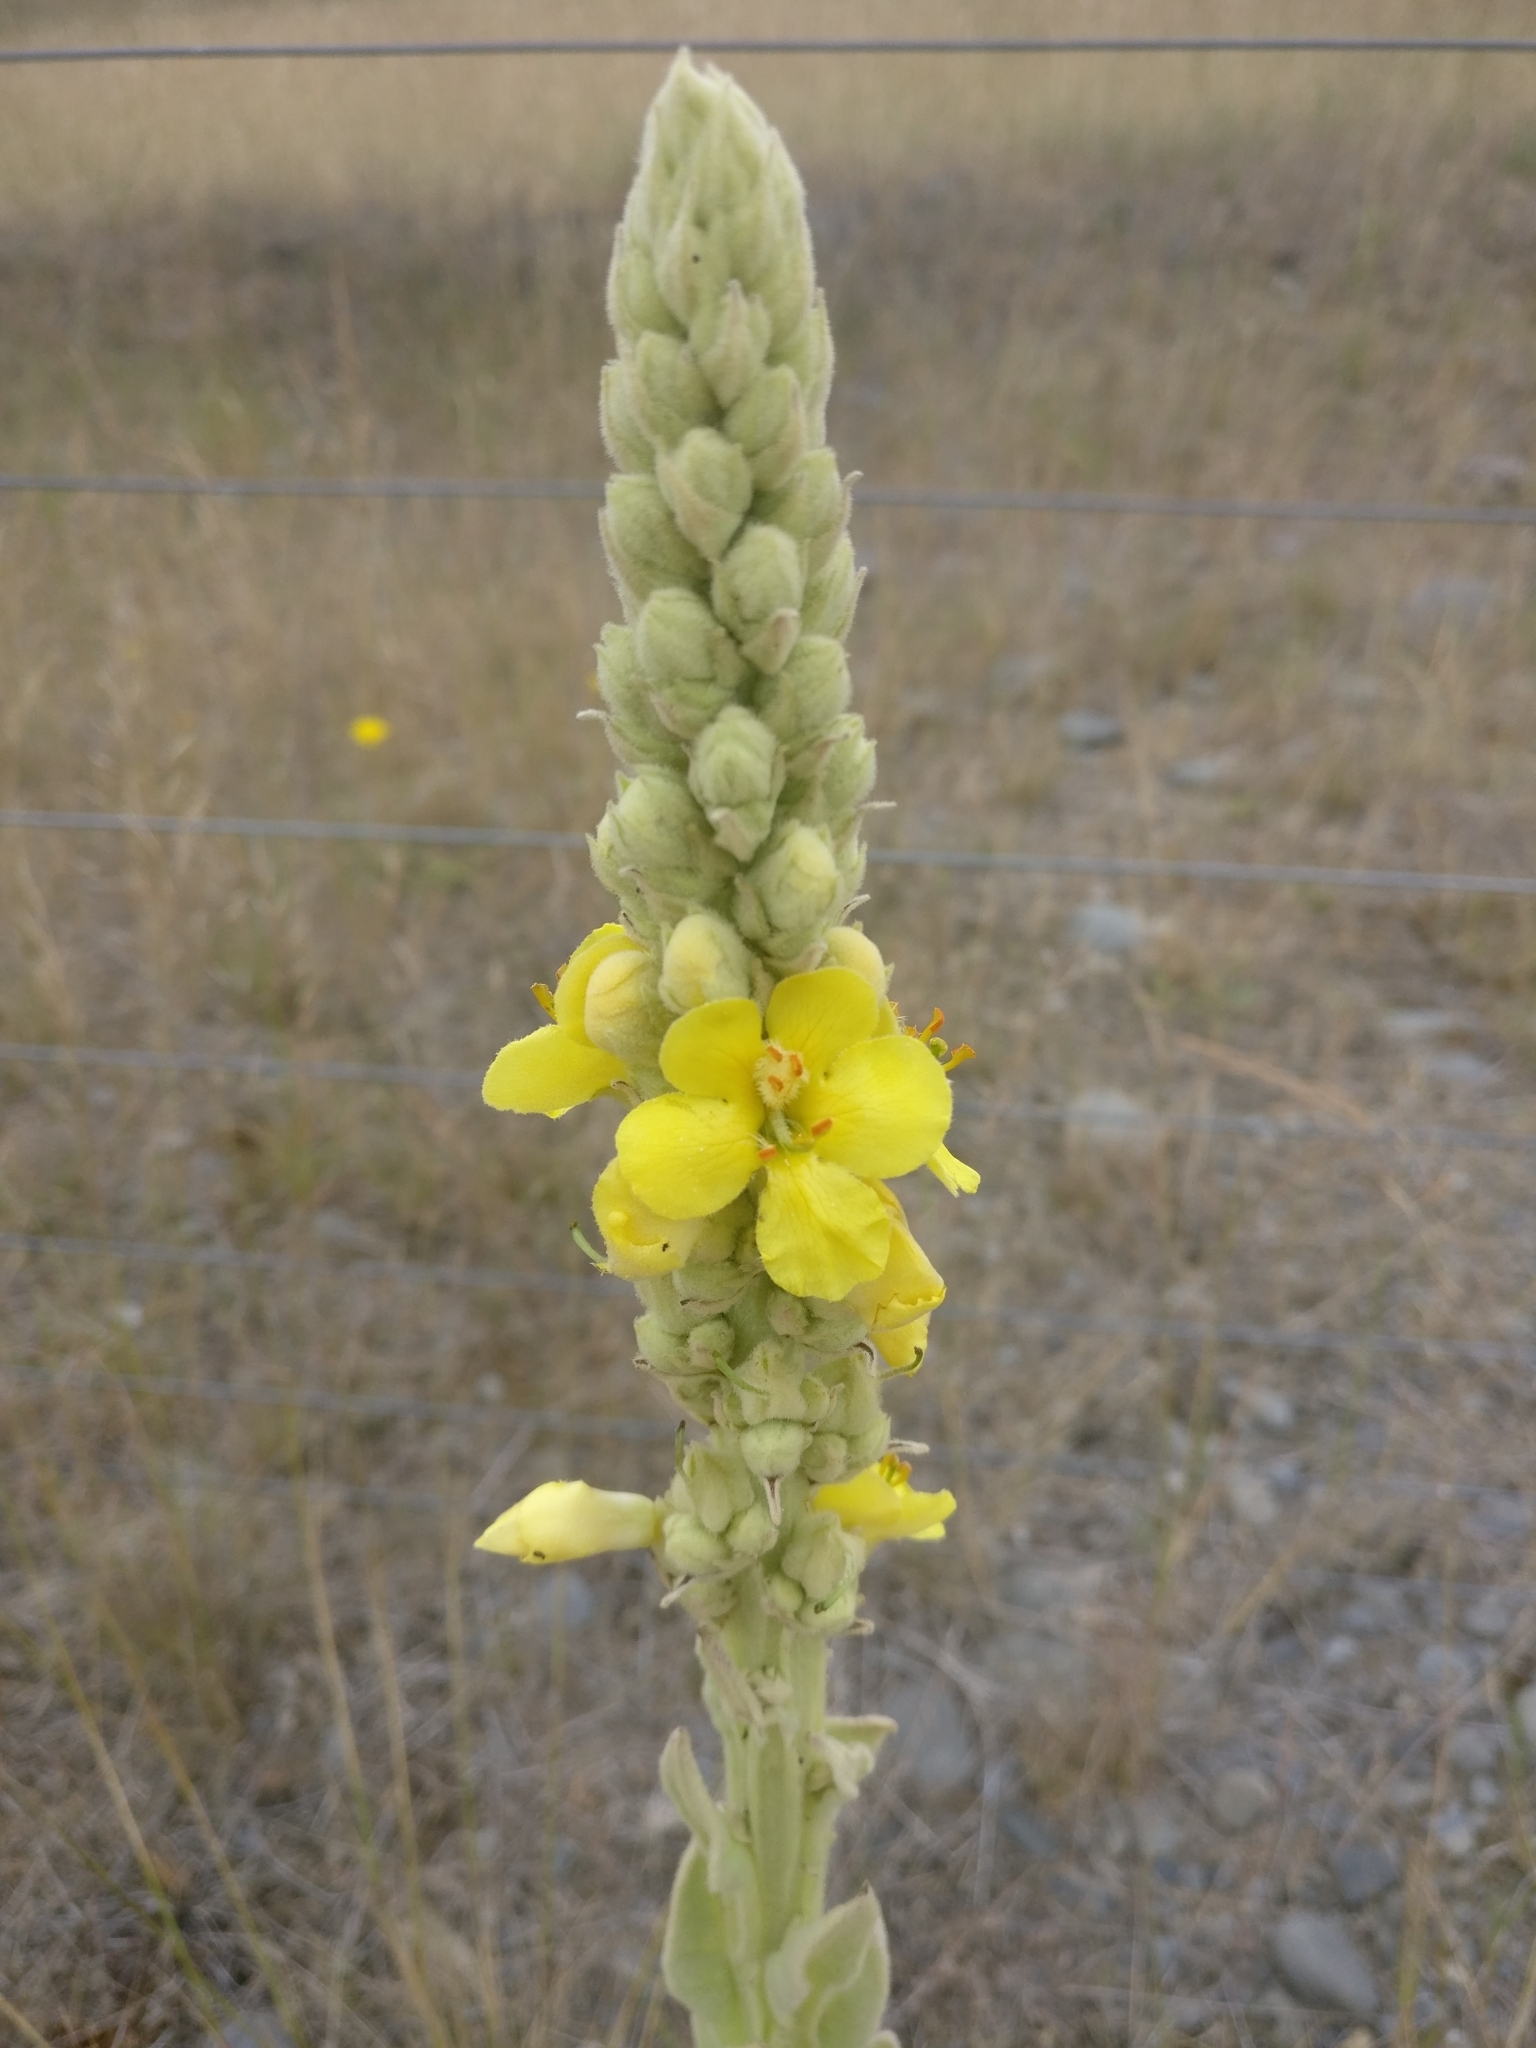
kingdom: Plantae
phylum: Tracheophyta
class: Magnoliopsida
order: Lamiales
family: Scrophulariaceae
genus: Verbascum
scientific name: Verbascum thapsus
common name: Common mullein
